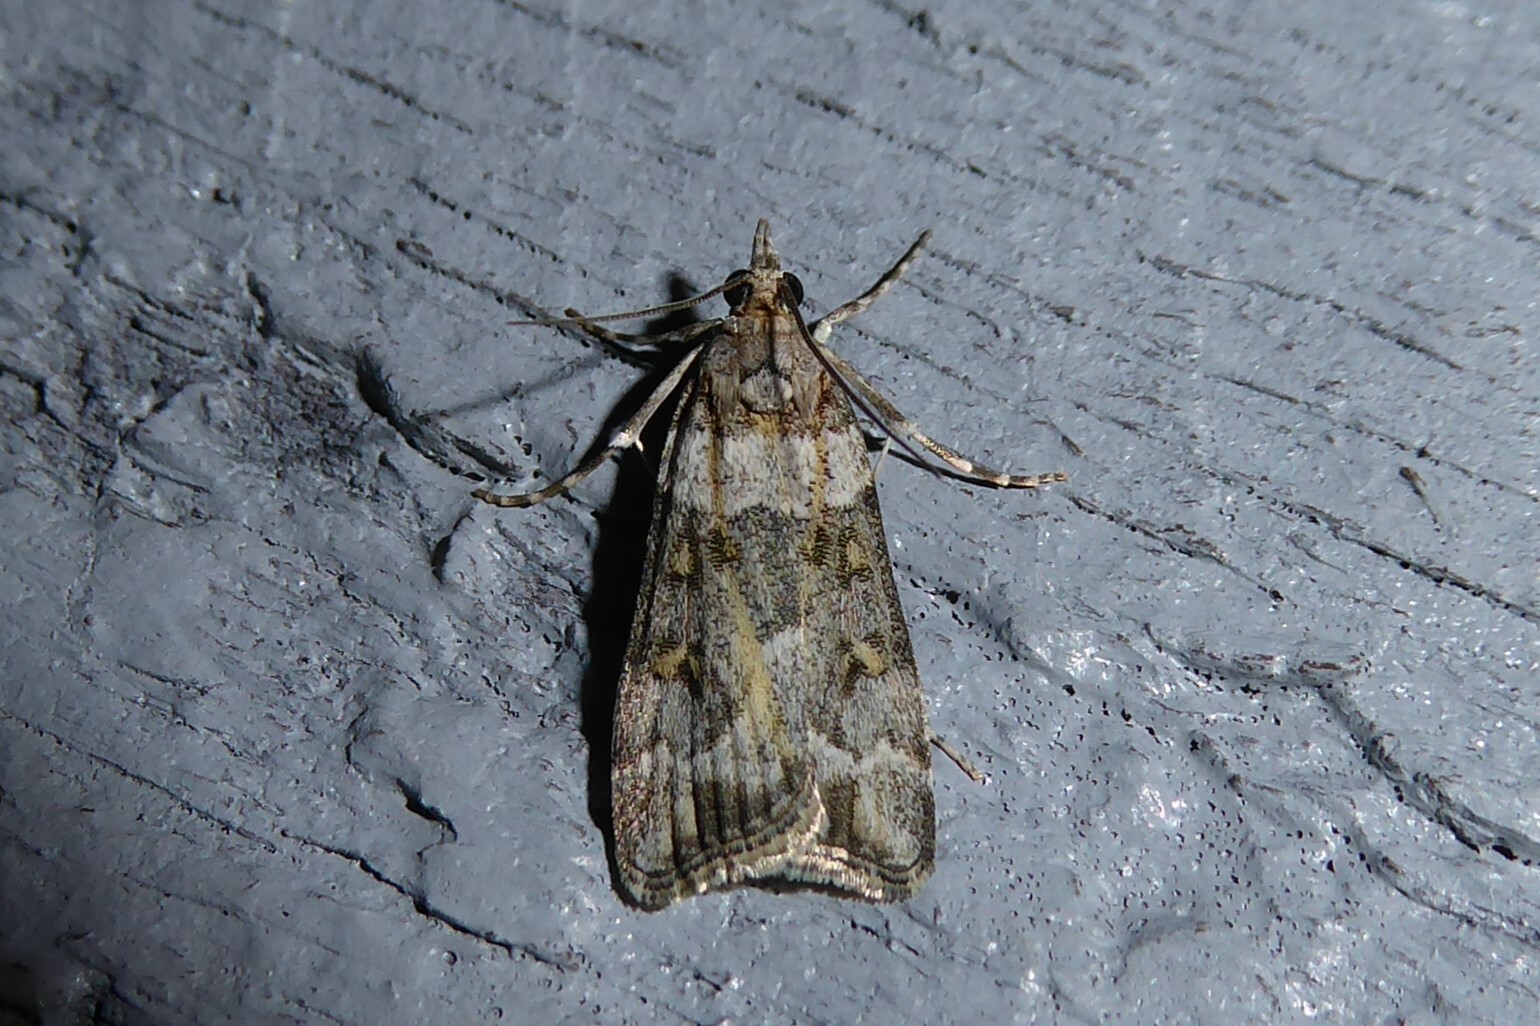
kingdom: Animalia
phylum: Arthropoda
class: Insecta
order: Lepidoptera
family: Crambidae
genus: Scoparia
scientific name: Scoparia tetracycla
